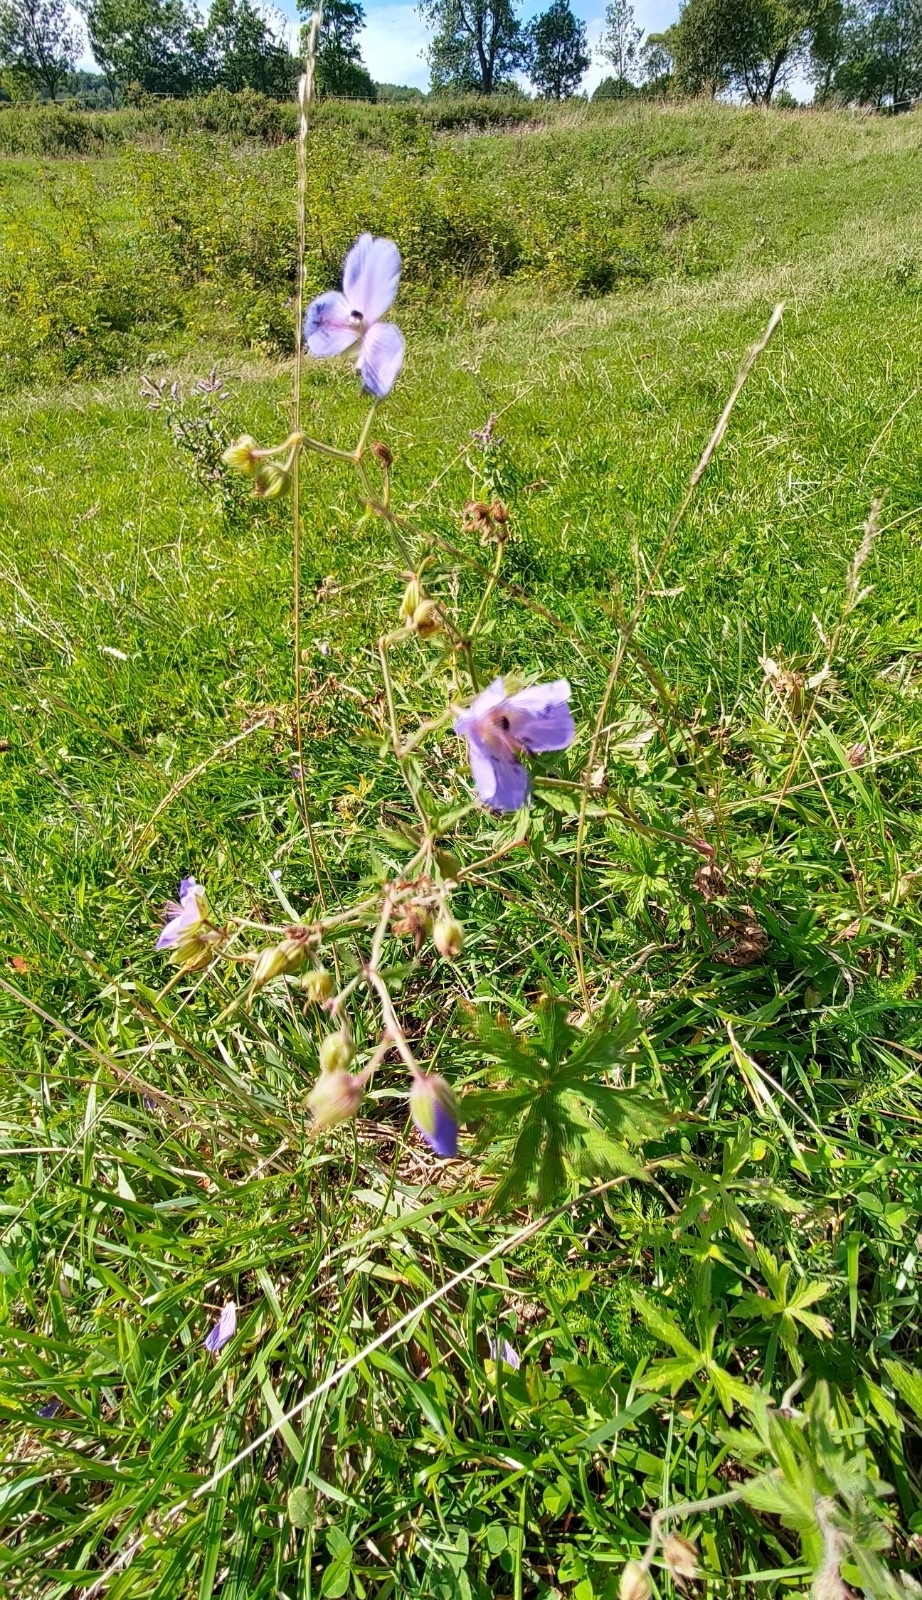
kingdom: Plantae
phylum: Tracheophyta
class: Magnoliopsida
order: Geraniales
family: Geraniaceae
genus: Geranium
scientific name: Geranium pratense
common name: Meadow crane's-bill
